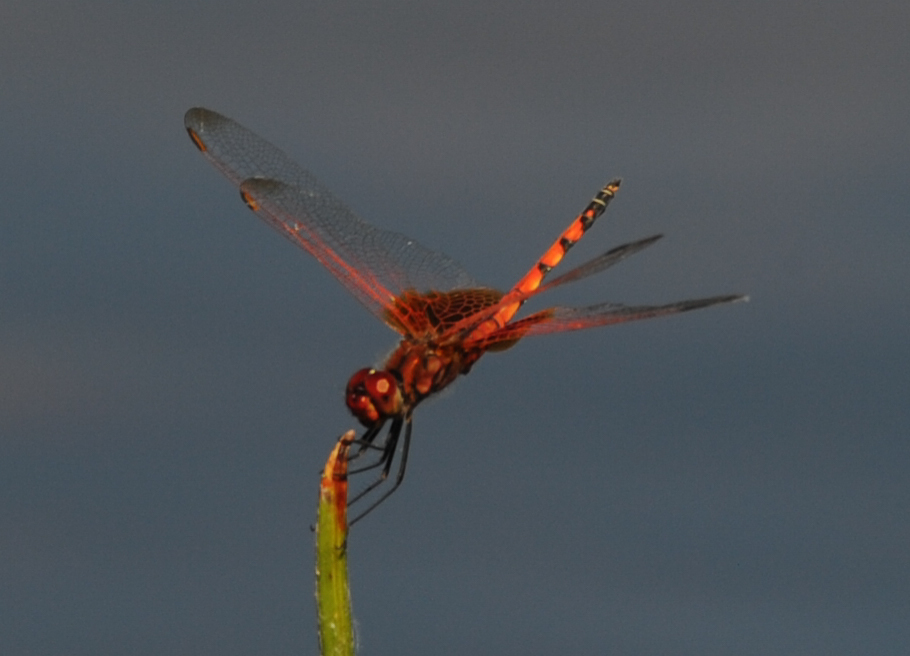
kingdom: Animalia
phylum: Arthropoda
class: Insecta
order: Odonata
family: Libellulidae
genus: Trithemis
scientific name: Trithemis monardi
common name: Monard's dropwing
